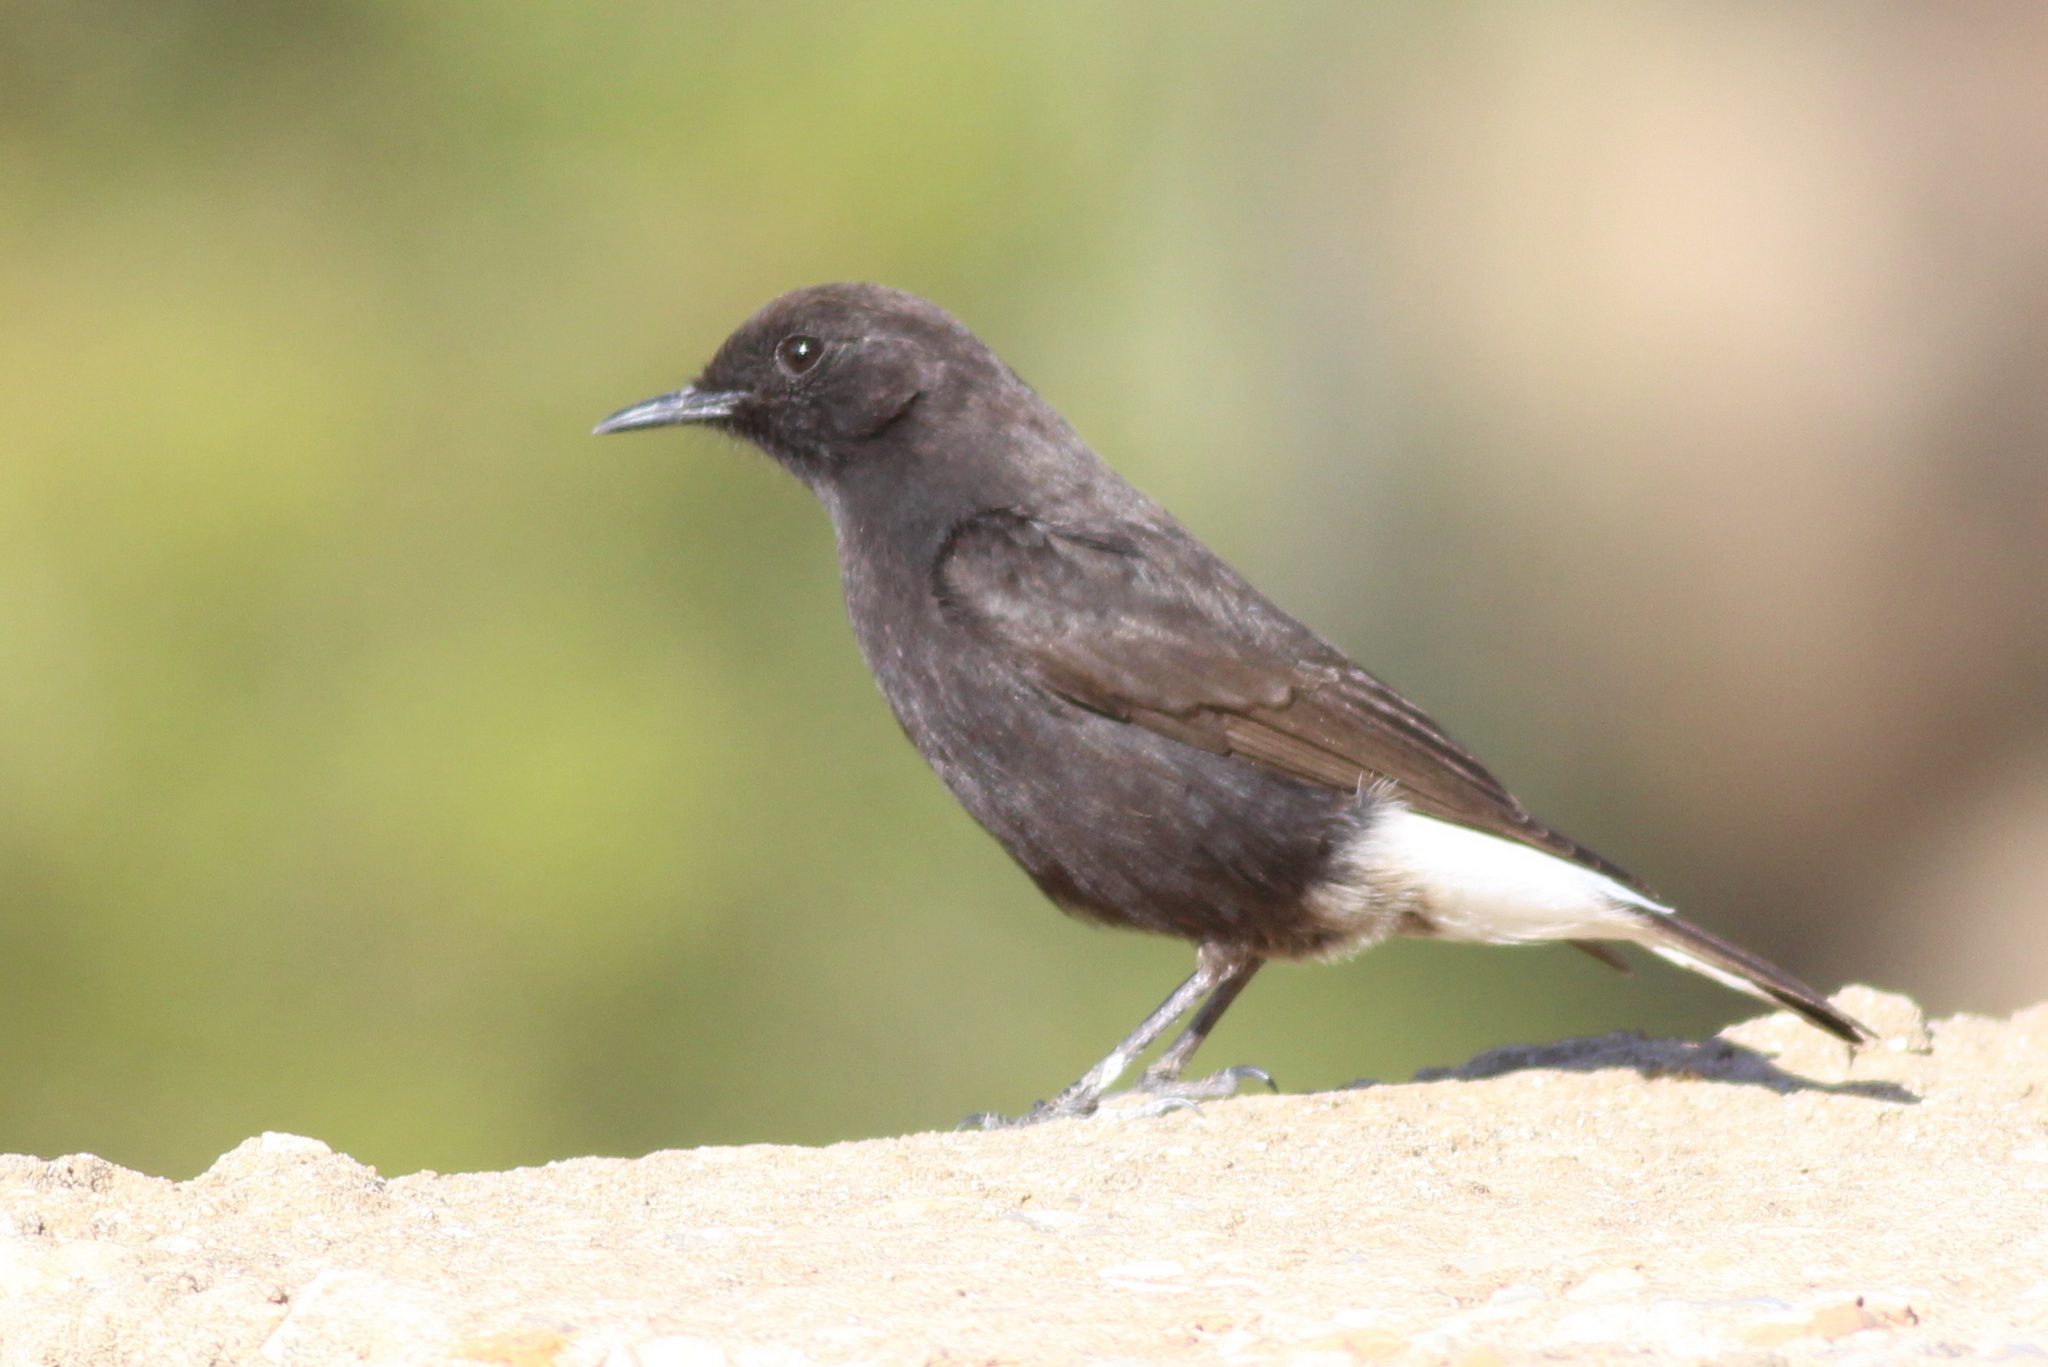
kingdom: Animalia
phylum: Chordata
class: Aves
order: Passeriformes
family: Muscicapidae
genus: Oenanthe
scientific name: Oenanthe leucura
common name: Black wheatear
